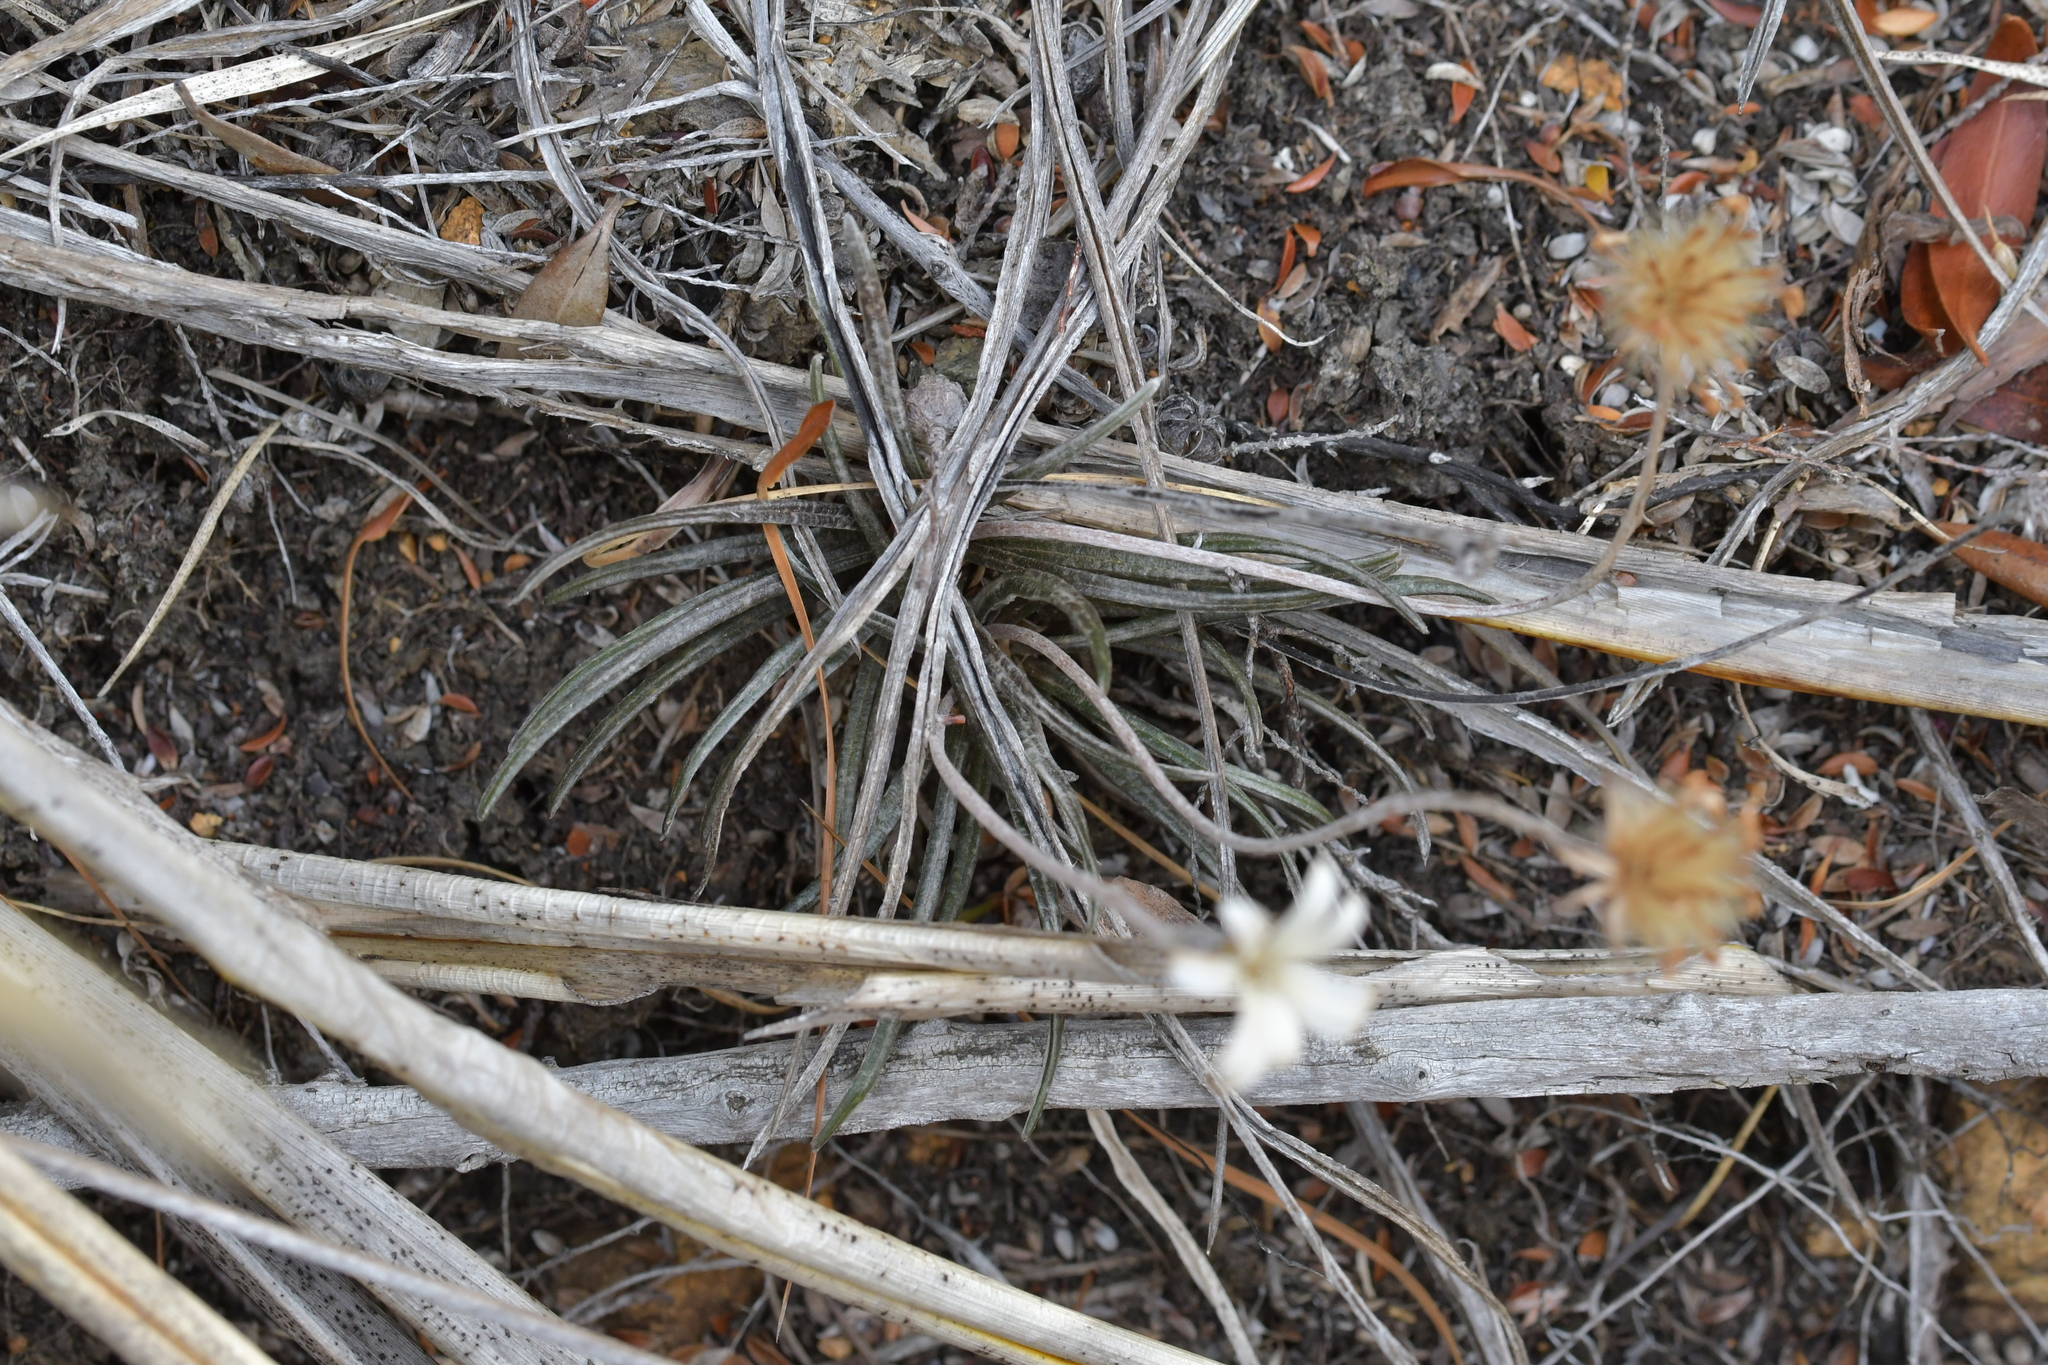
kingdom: Plantae
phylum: Tracheophyta
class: Magnoliopsida
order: Asterales
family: Asteraceae
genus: Celmisia
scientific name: Celmisia gracilenta
